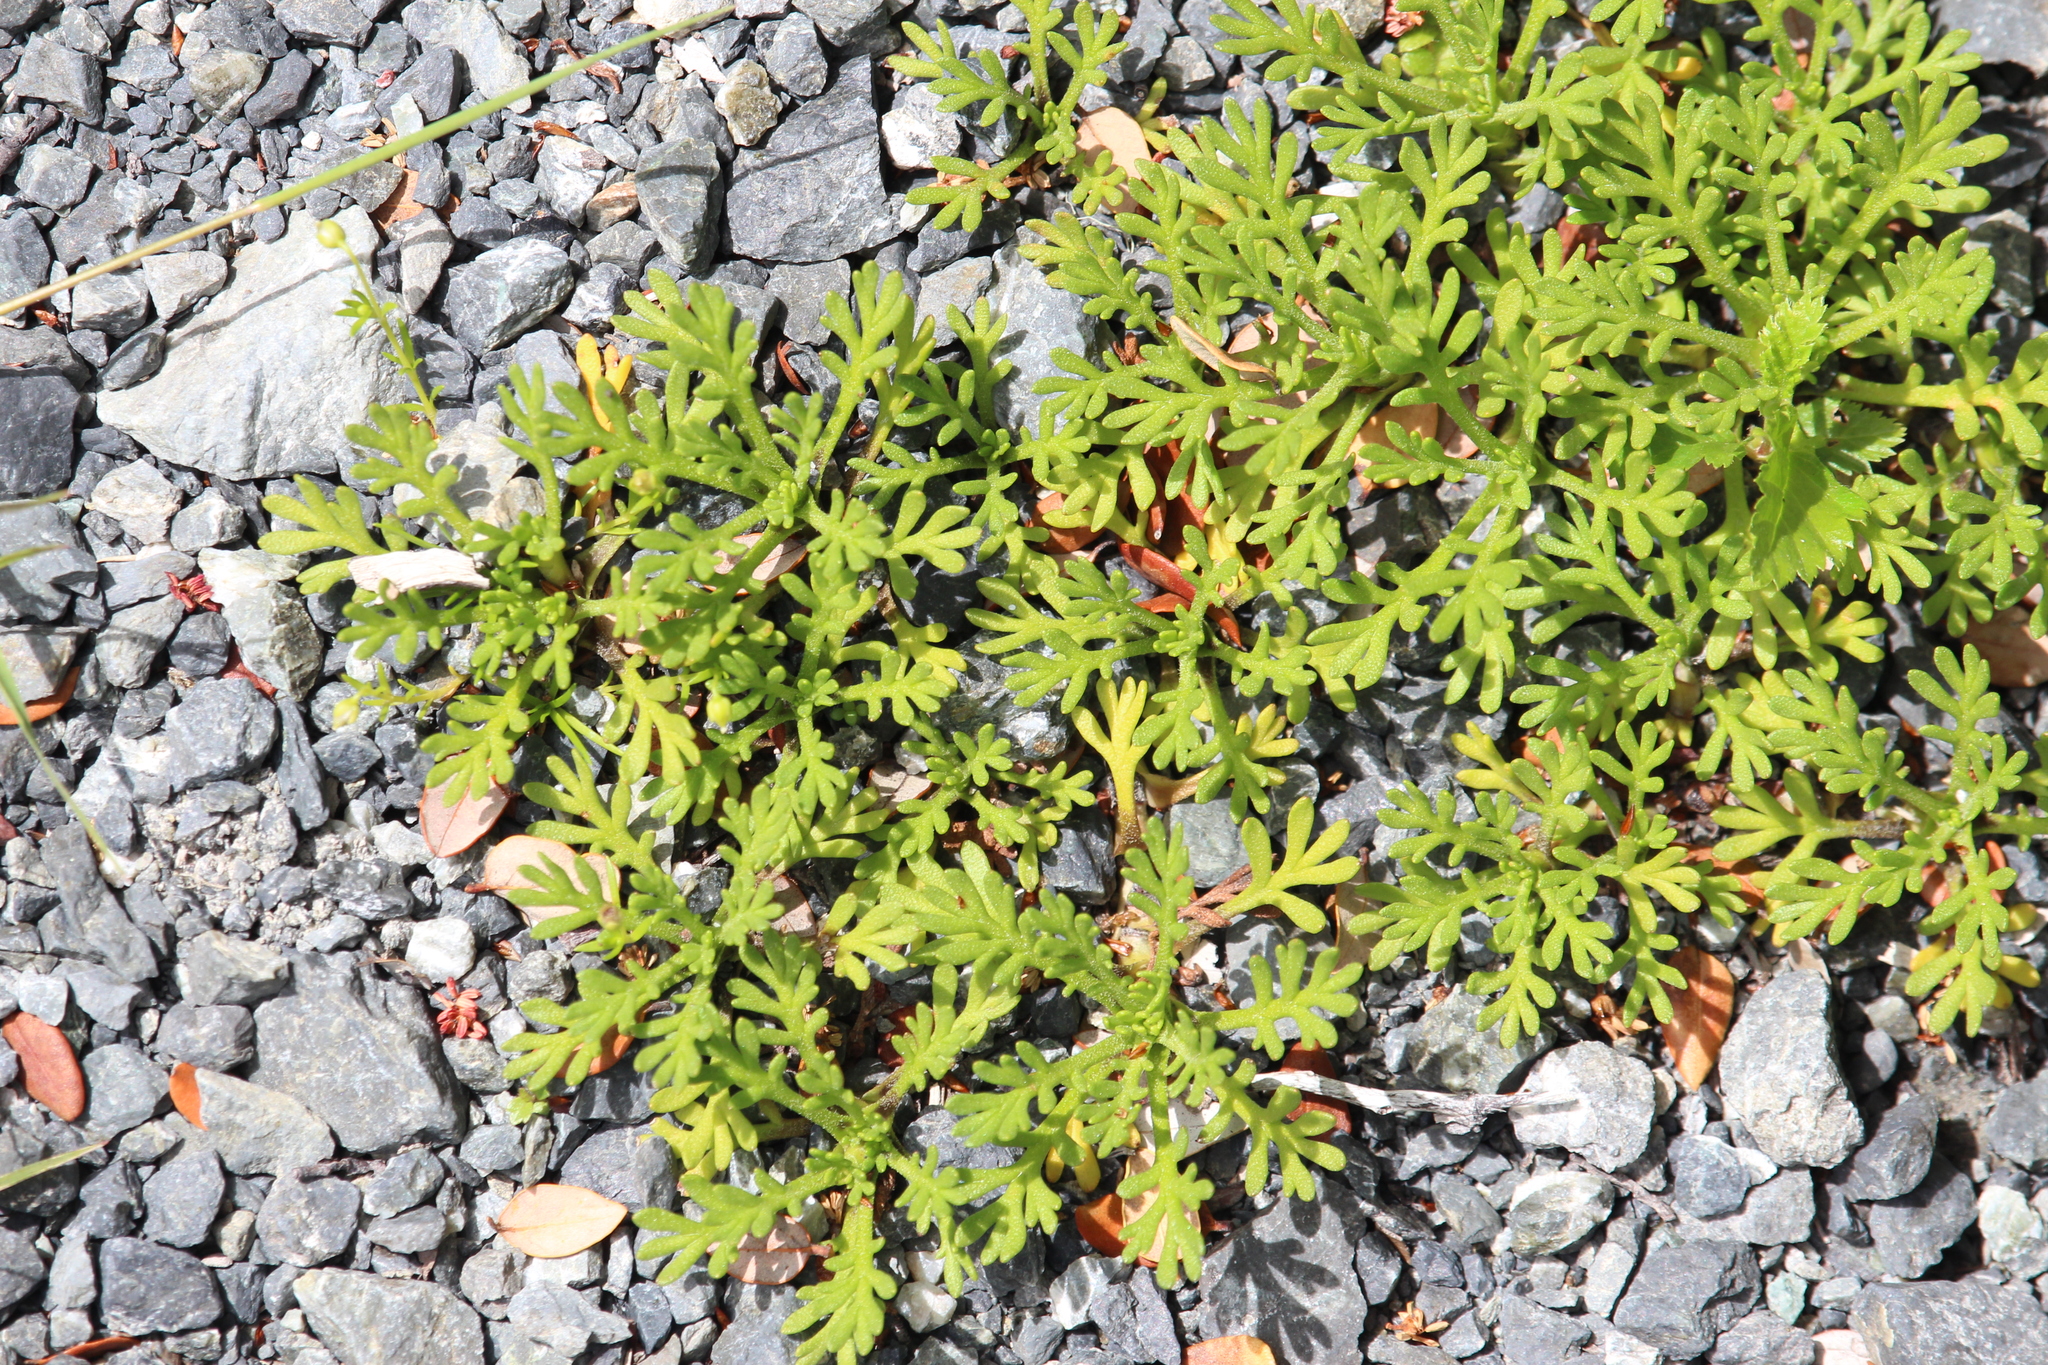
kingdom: Plantae
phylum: Tracheophyta
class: Magnoliopsida
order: Oxalidales
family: Oxalidaceae
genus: Oxalis
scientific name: Oxalis magellanica
